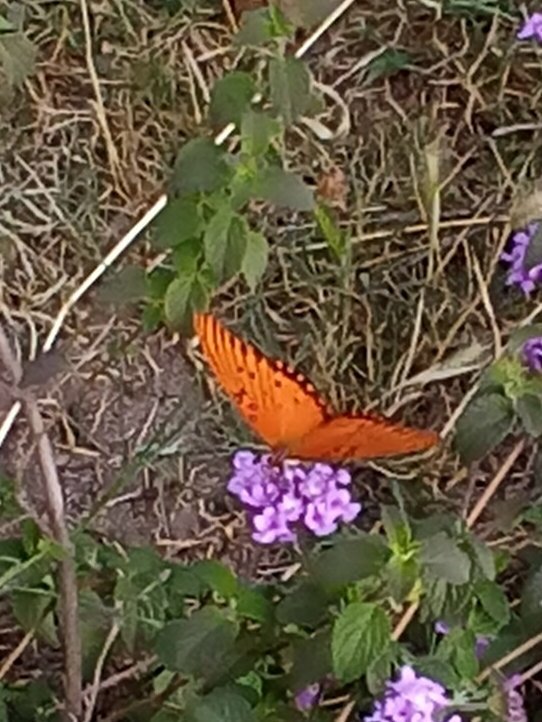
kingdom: Animalia
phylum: Arthropoda
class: Insecta
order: Lepidoptera
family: Nymphalidae
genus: Dione
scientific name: Dione vanillae
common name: Gulf fritillary
